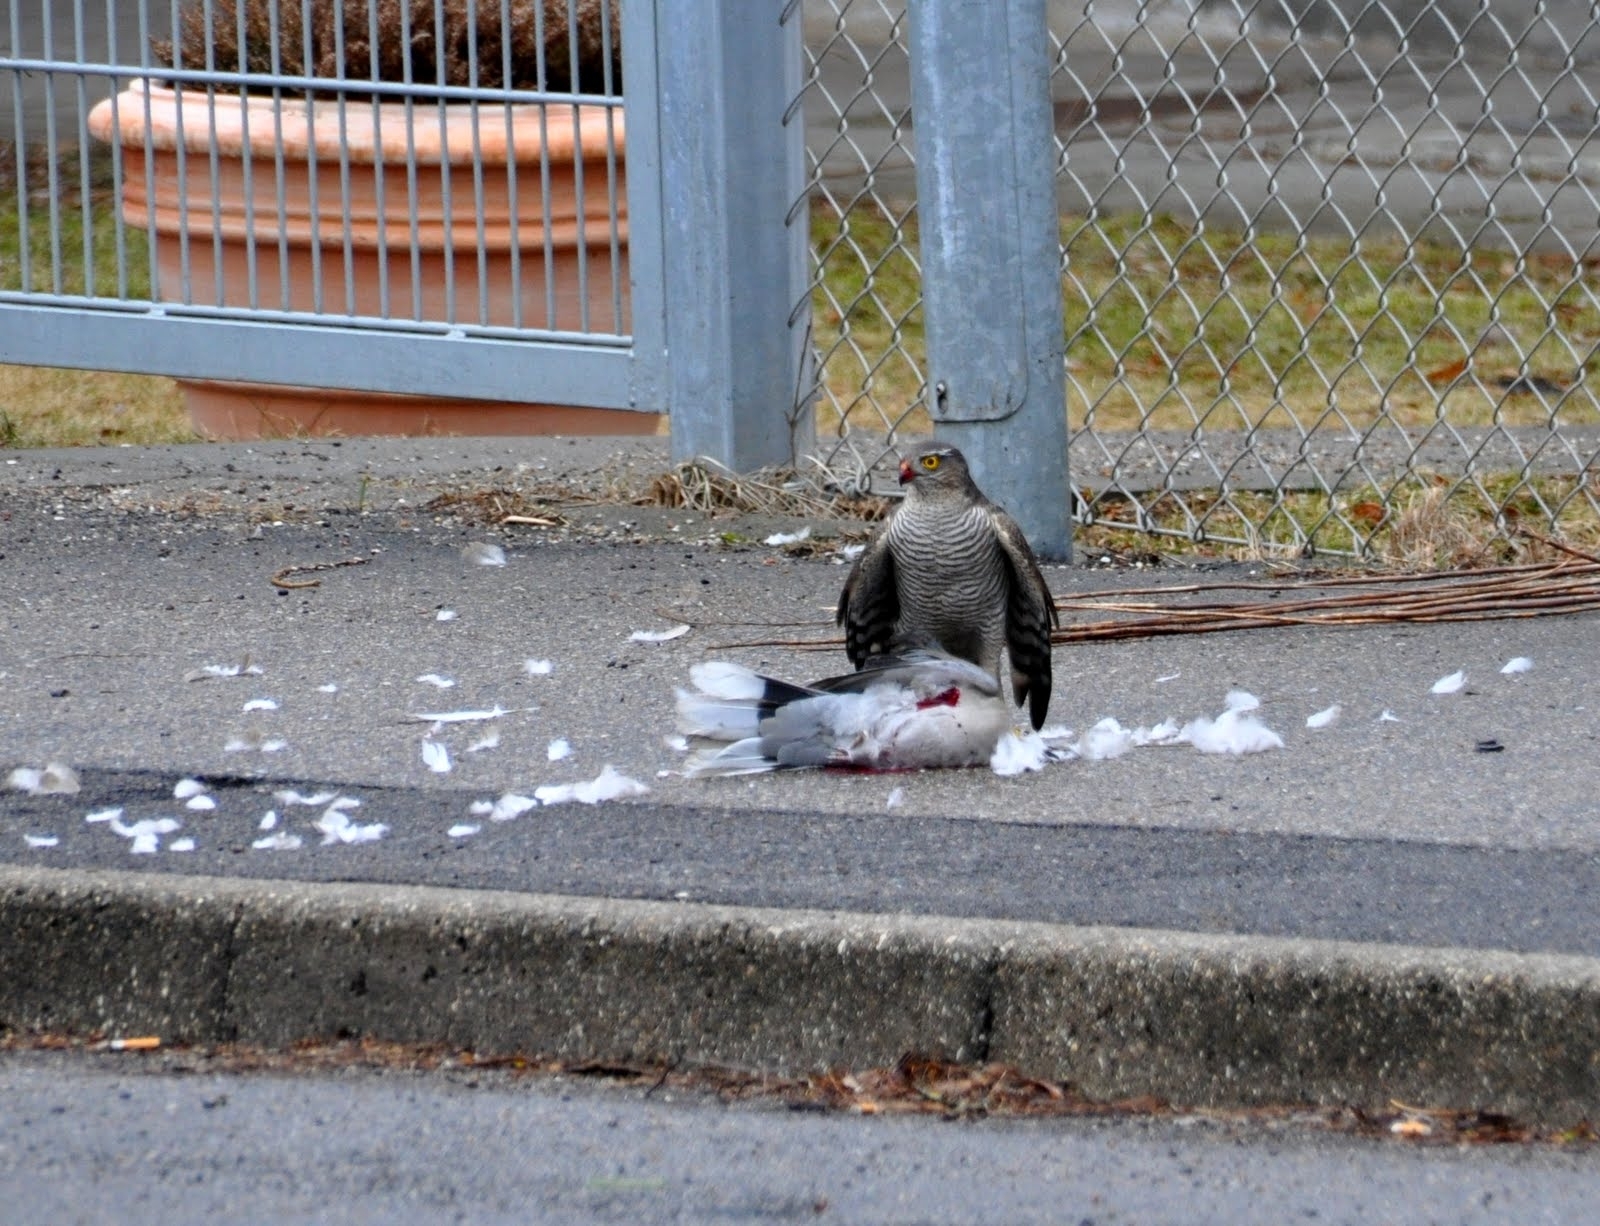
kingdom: Animalia
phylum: Chordata
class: Aves
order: Accipitriformes
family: Accipitridae
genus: Accipiter
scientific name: Accipiter nisus
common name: Eurasian sparrowhawk
